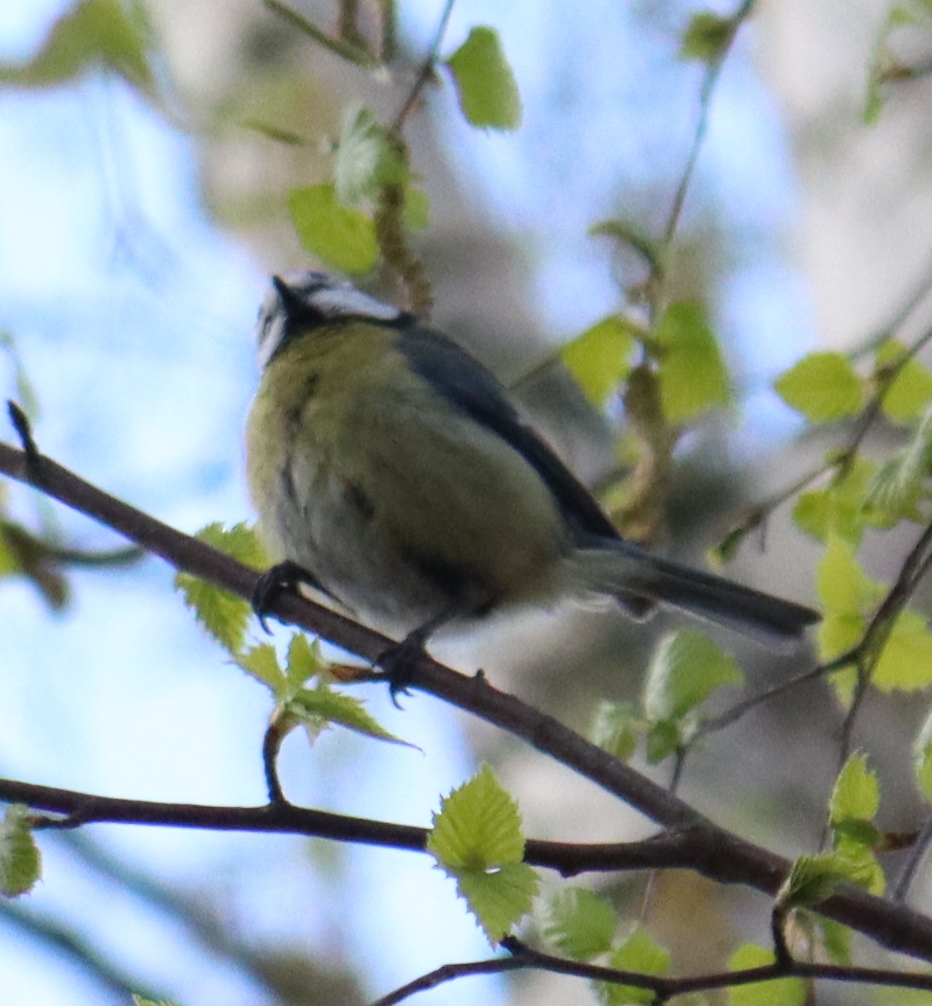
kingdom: Animalia
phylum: Chordata
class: Aves
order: Passeriformes
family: Paridae
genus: Cyanistes
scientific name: Cyanistes caeruleus
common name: Eurasian blue tit
